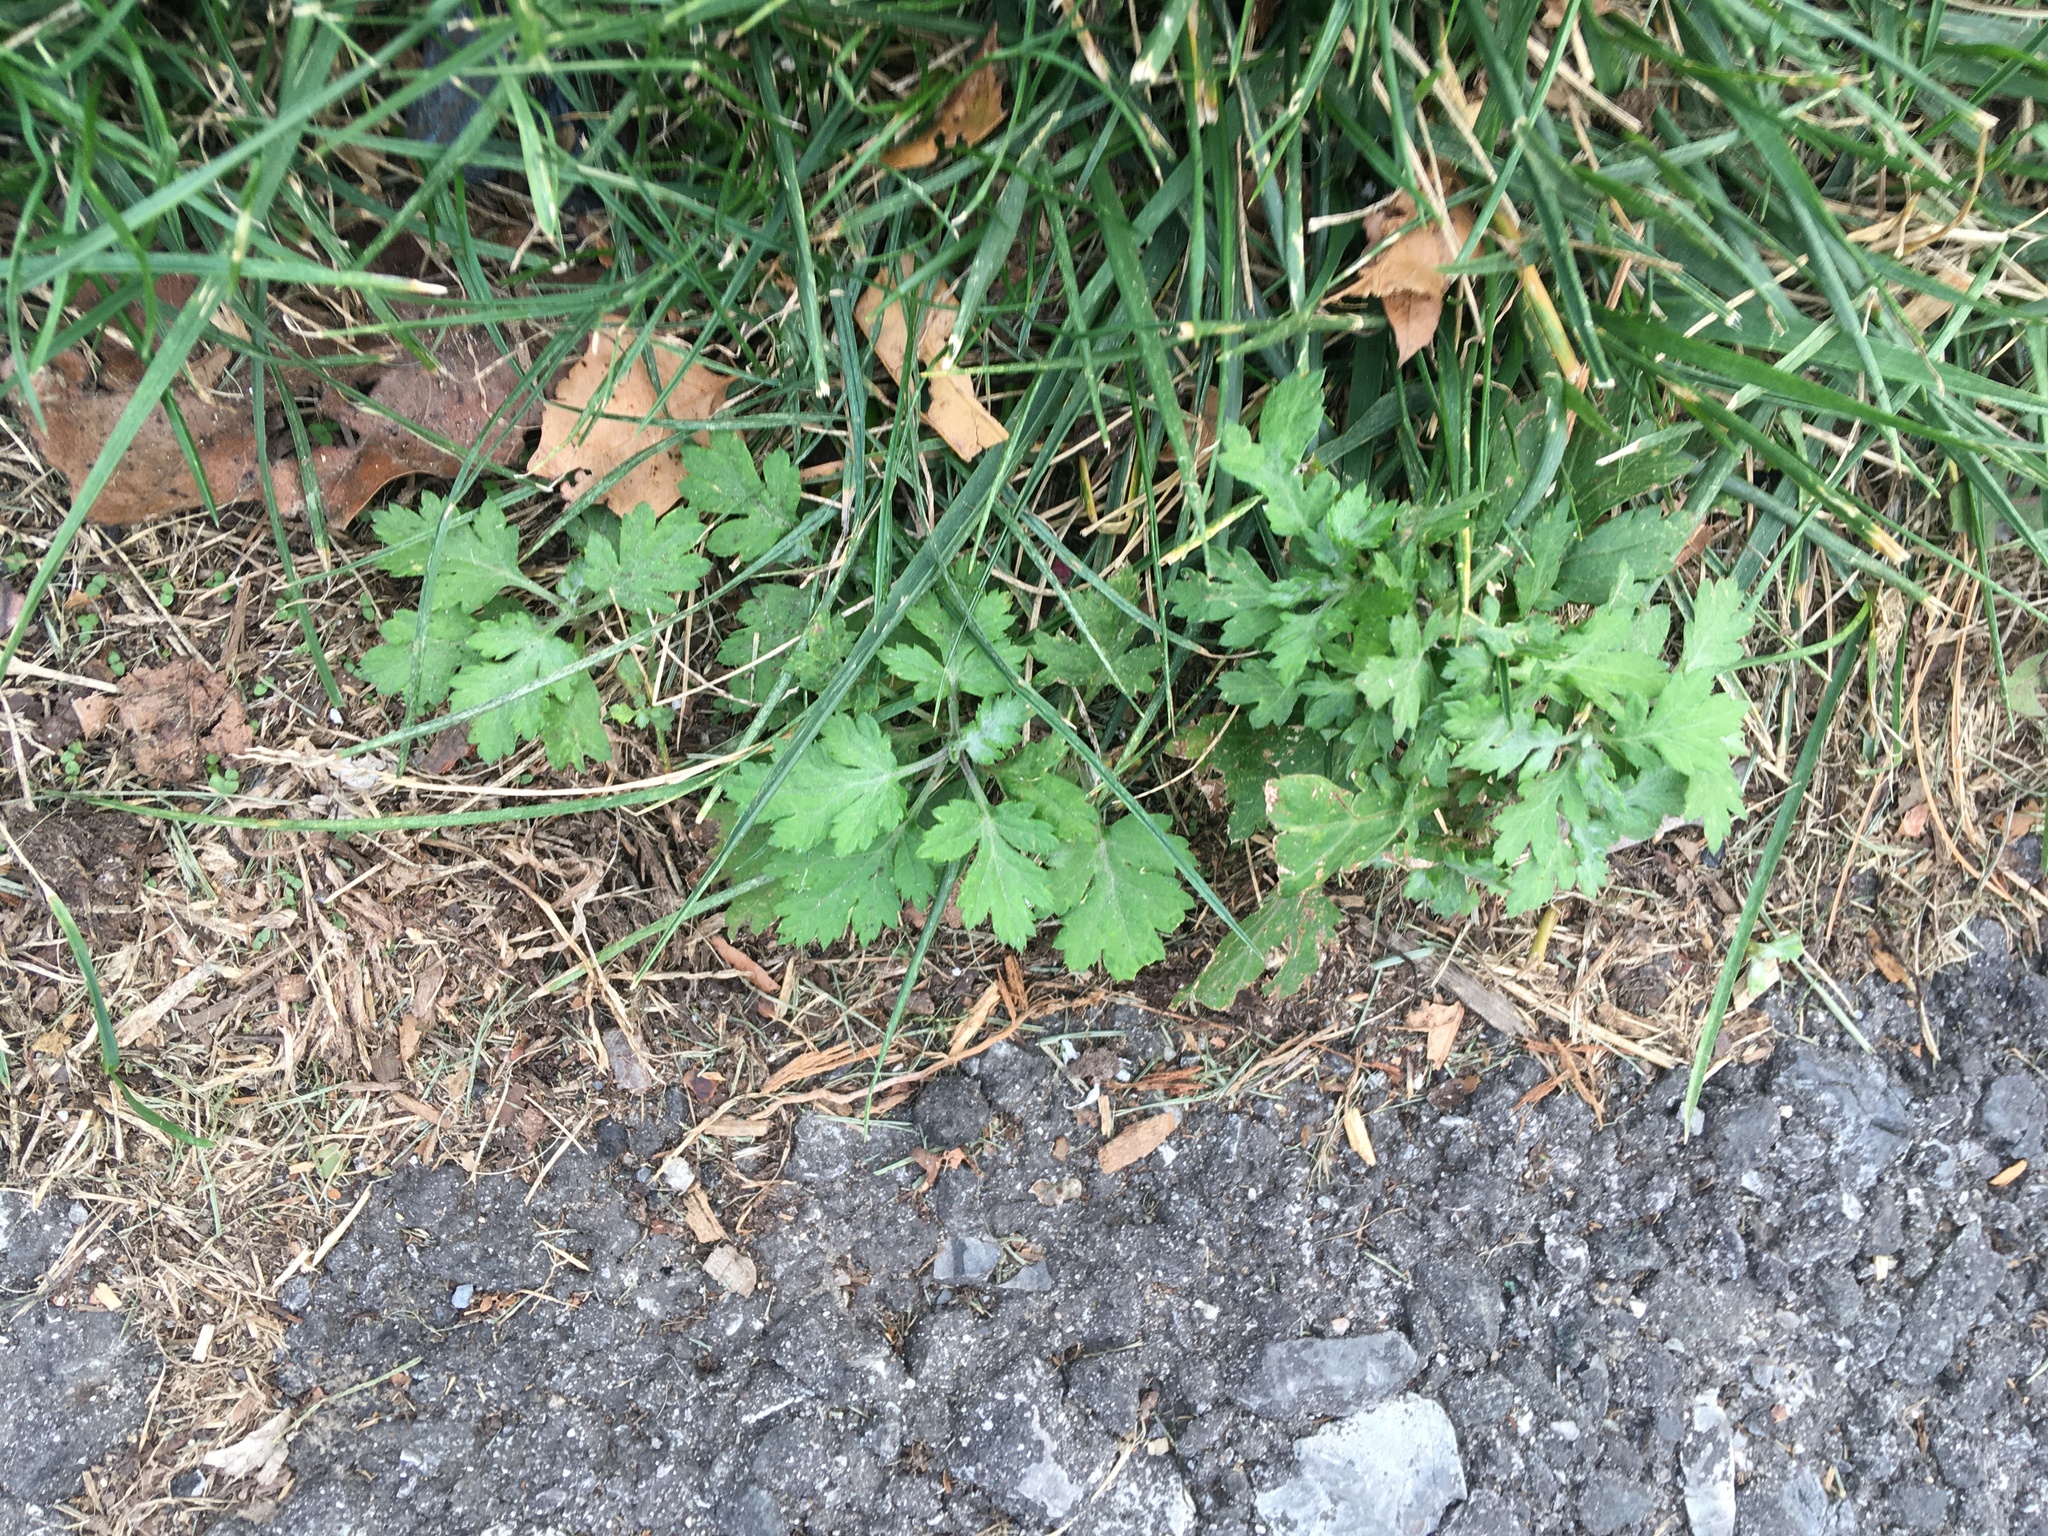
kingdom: Plantae
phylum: Tracheophyta
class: Magnoliopsida
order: Asterales
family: Asteraceae
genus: Artemisia
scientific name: Artemisia vulgaris
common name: Mugwort
